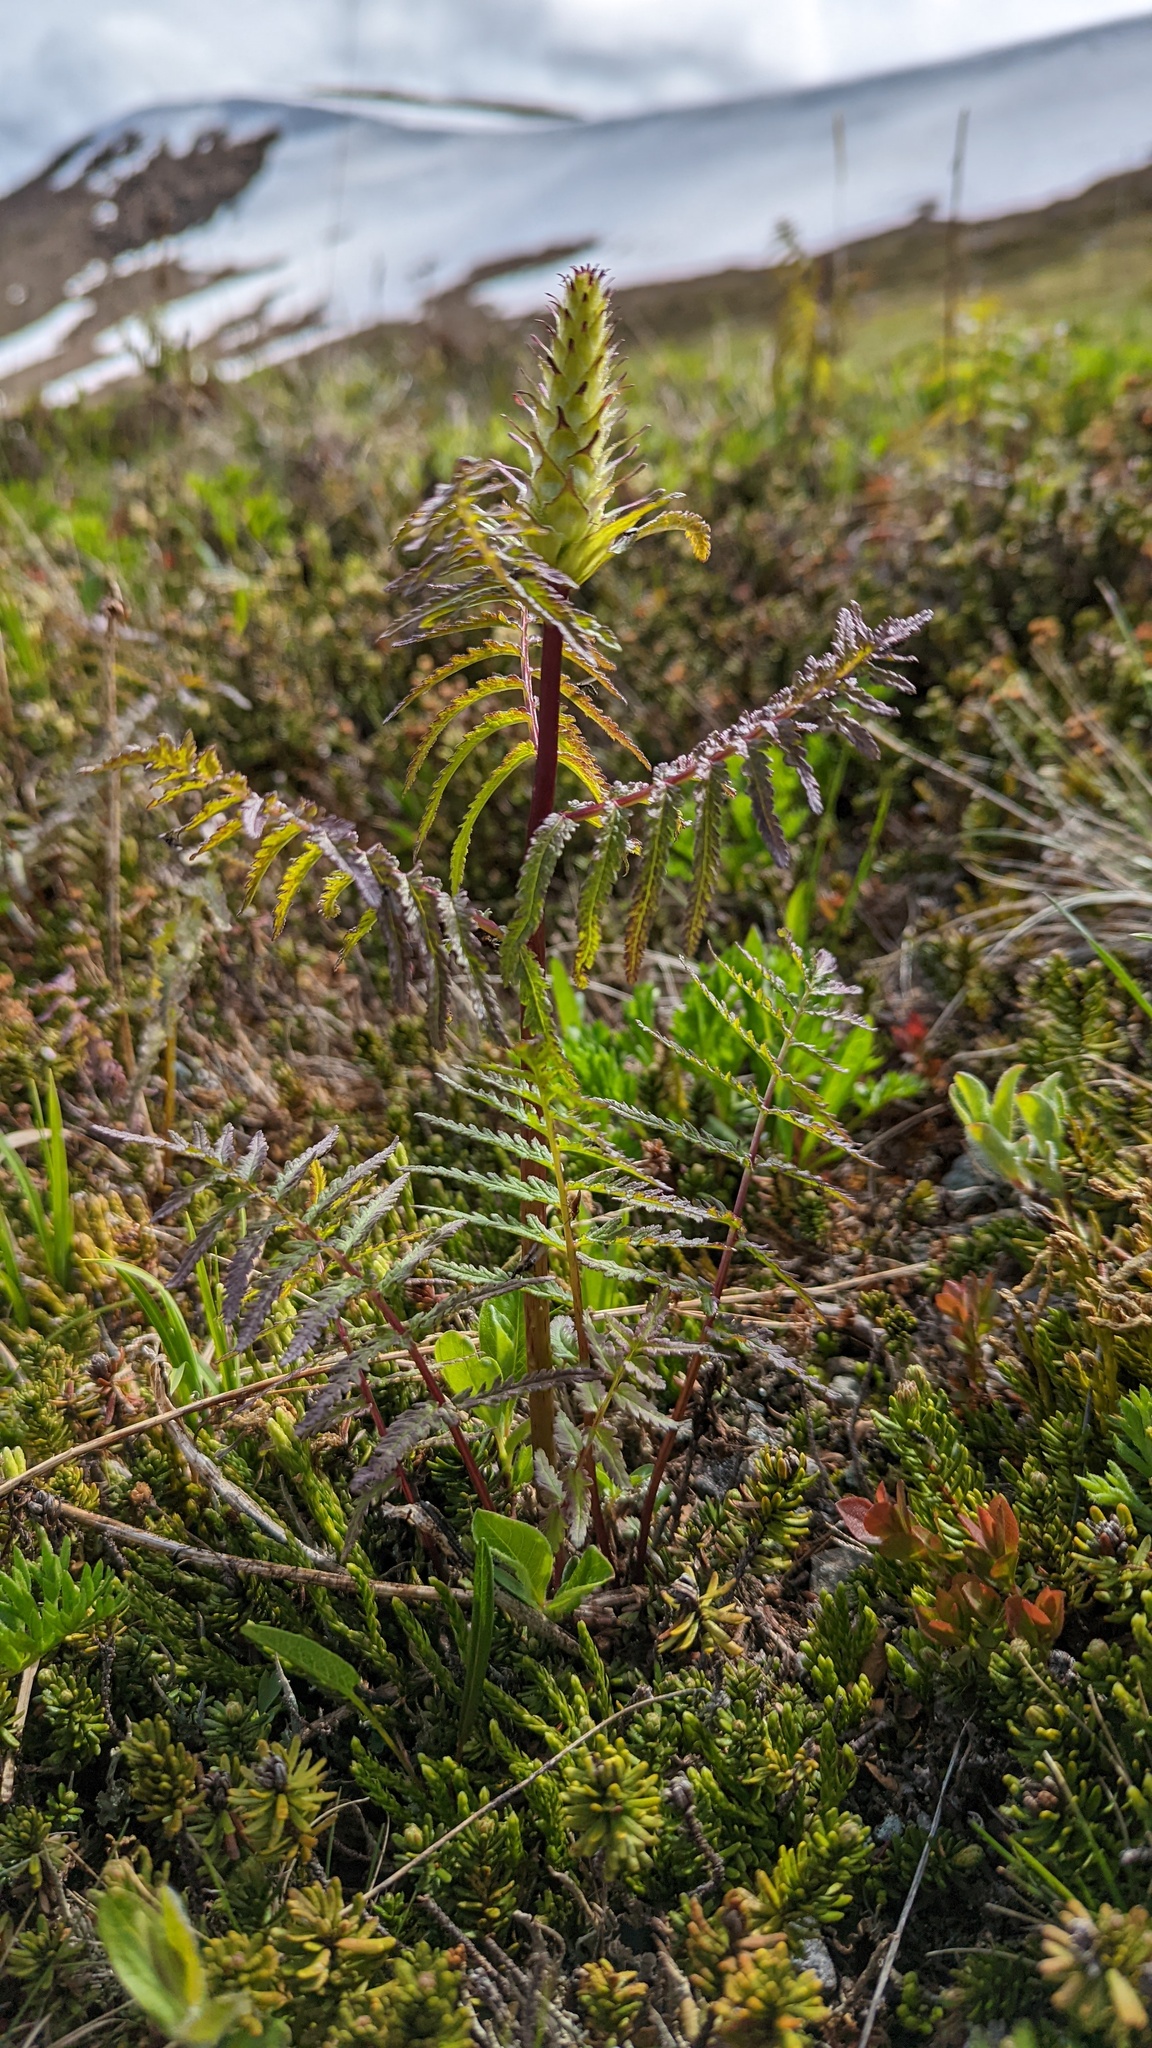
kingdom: Plantae
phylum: Tracheophyta
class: Magnoliopsida
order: Lamiales
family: Orobanchaceae
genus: Pedicularis
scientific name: Pedicularis bracteosa
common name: Bracted lousewort
